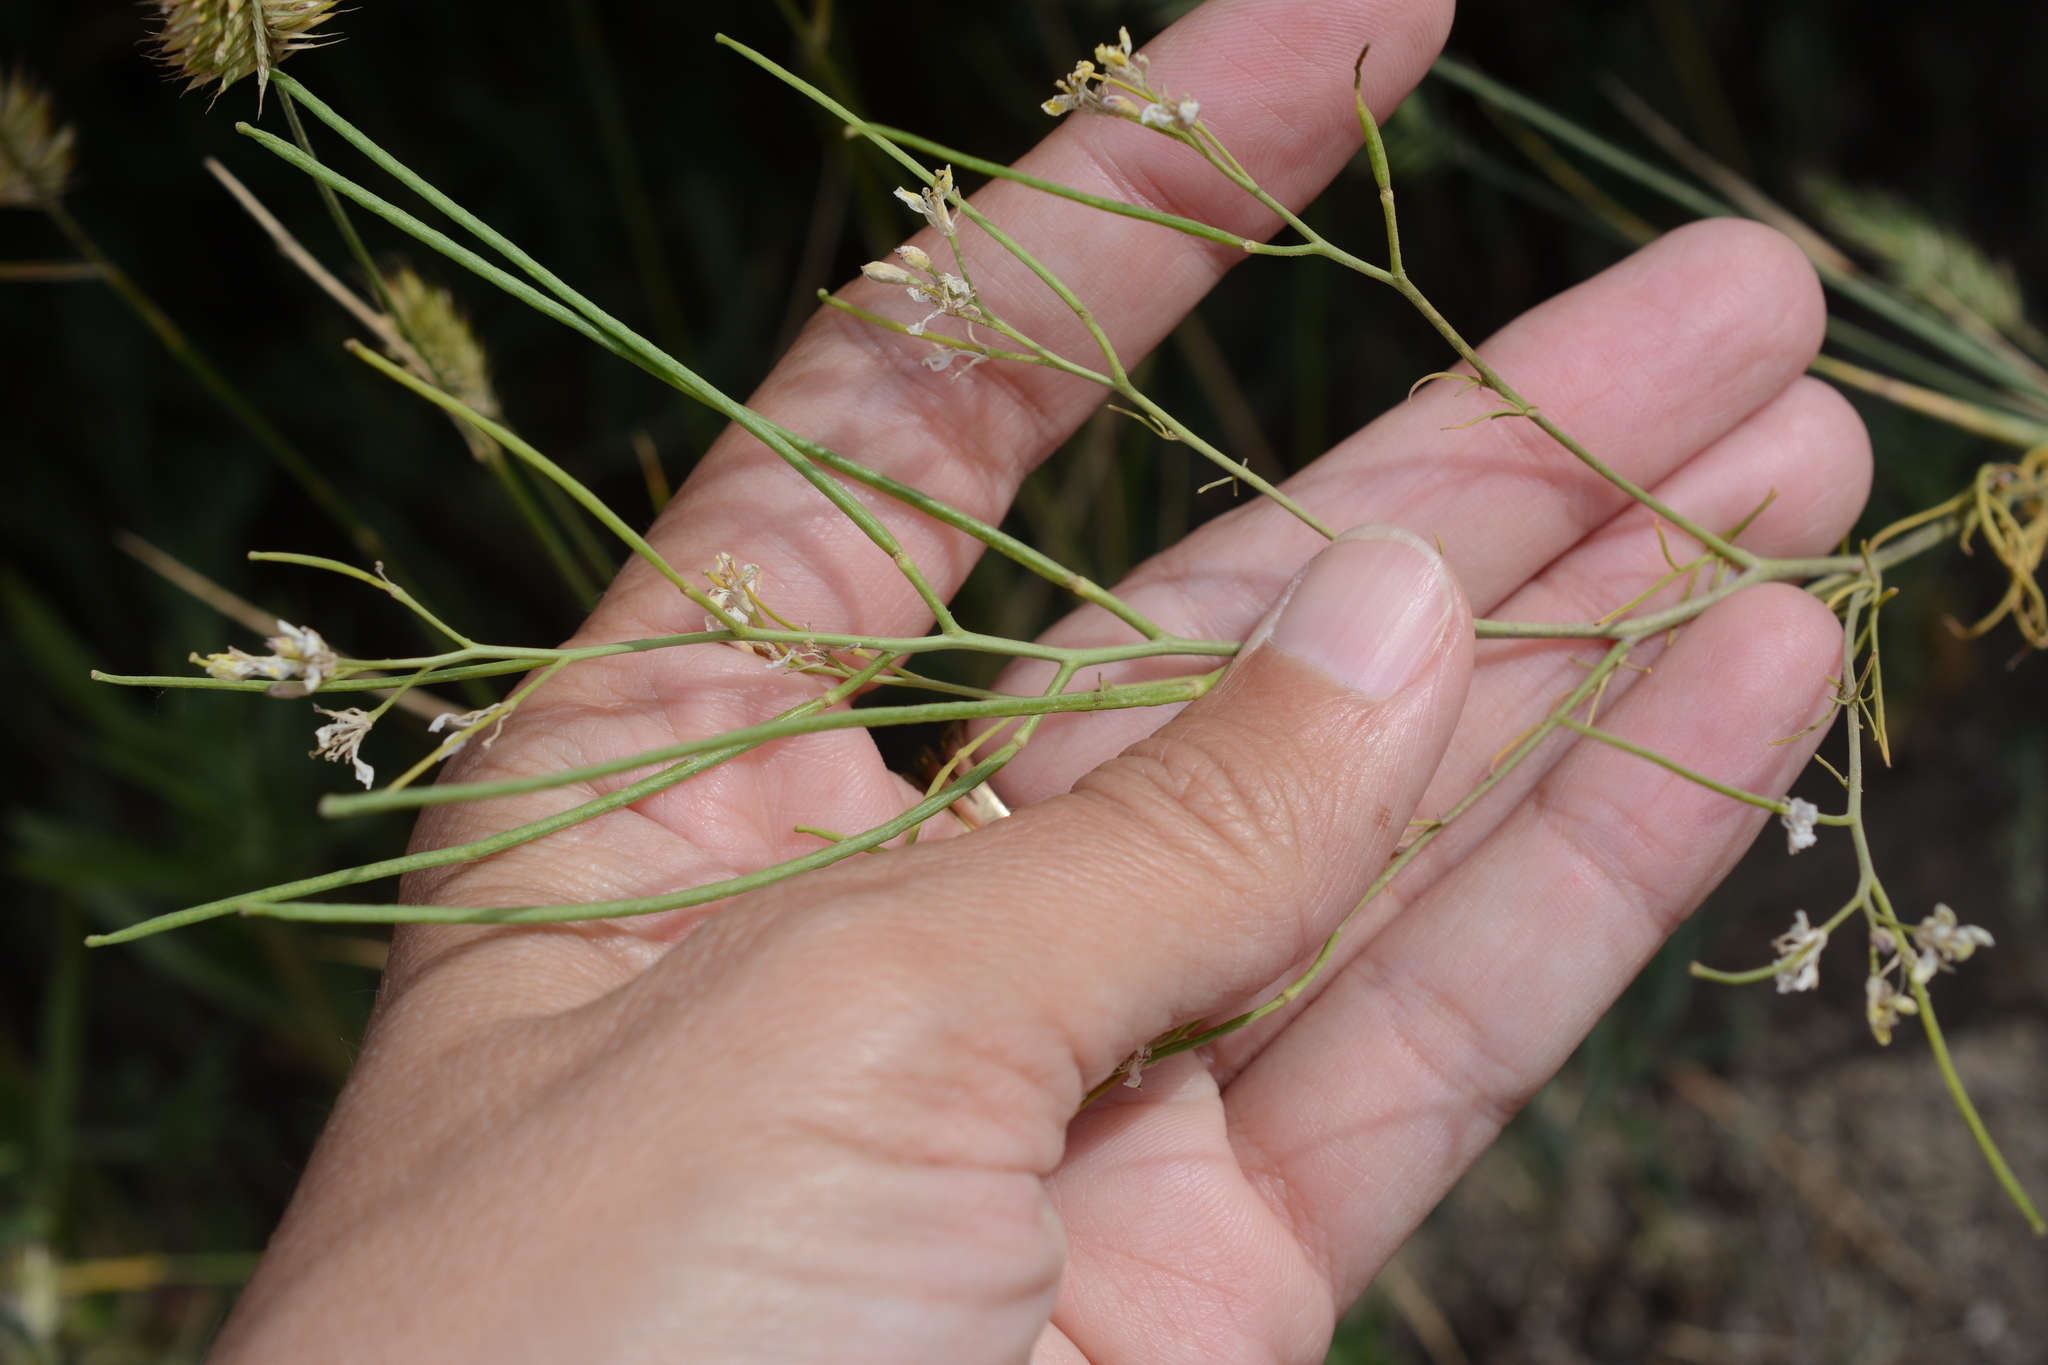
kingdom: Plantae
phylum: Tracheophyta
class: Magnoliopsida
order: Brassicales
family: Brassicaceae
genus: Sisymbrium
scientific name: Sisymbrium altissimum
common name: Tall rocket
